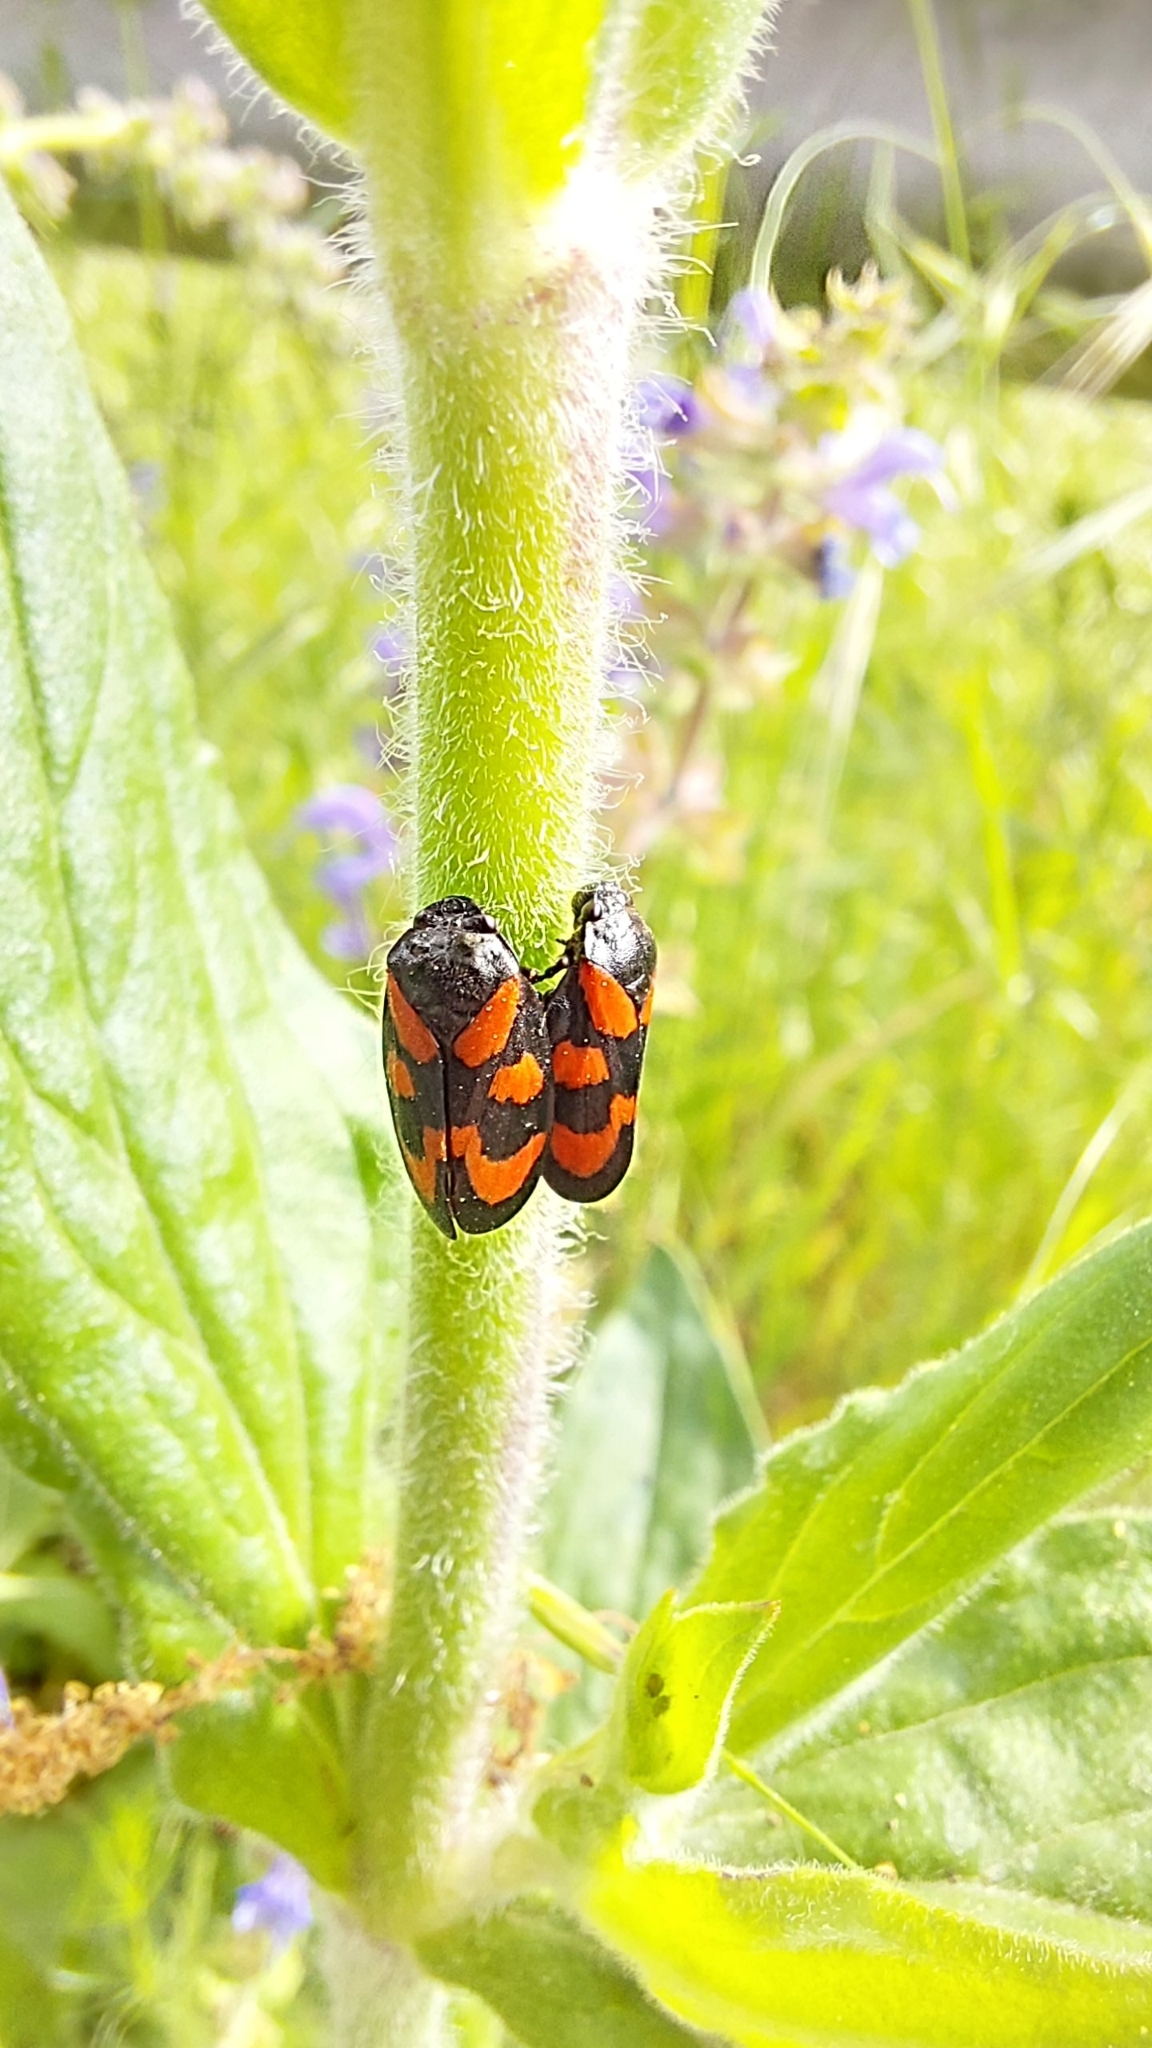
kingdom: Animalia
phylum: Arthropoda
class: Insecta
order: Hemiptera
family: Cercopidae
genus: Cercopis
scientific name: Cercopis vulnerata
